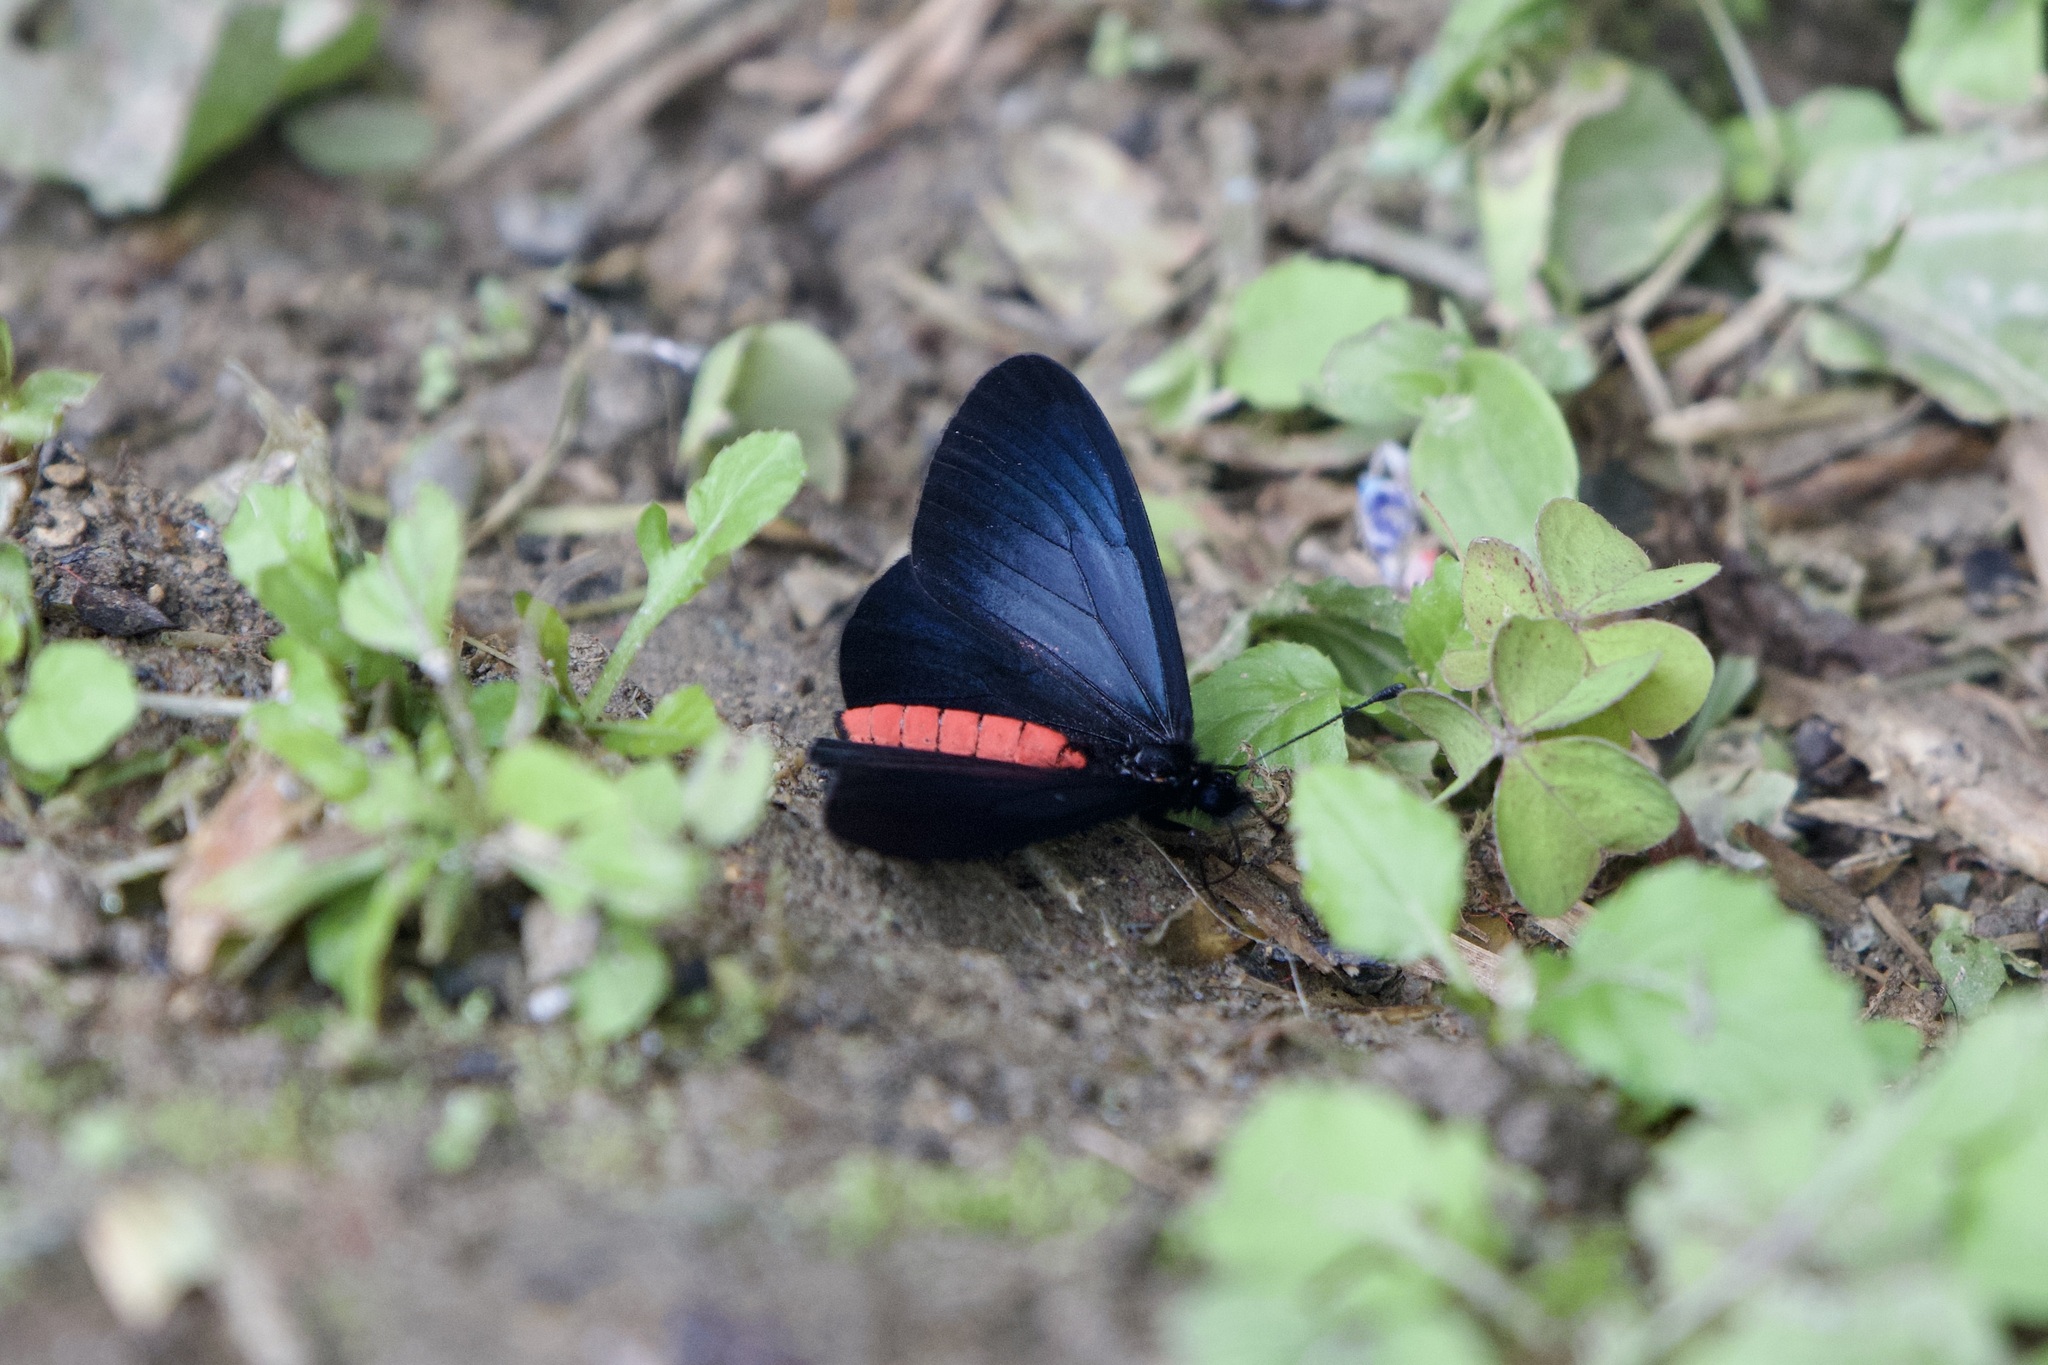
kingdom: Animalia
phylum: Arthropoda
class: Insecta
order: Lepidoptera
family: Nymphalidae
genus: Actinote
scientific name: Actinote neleus
